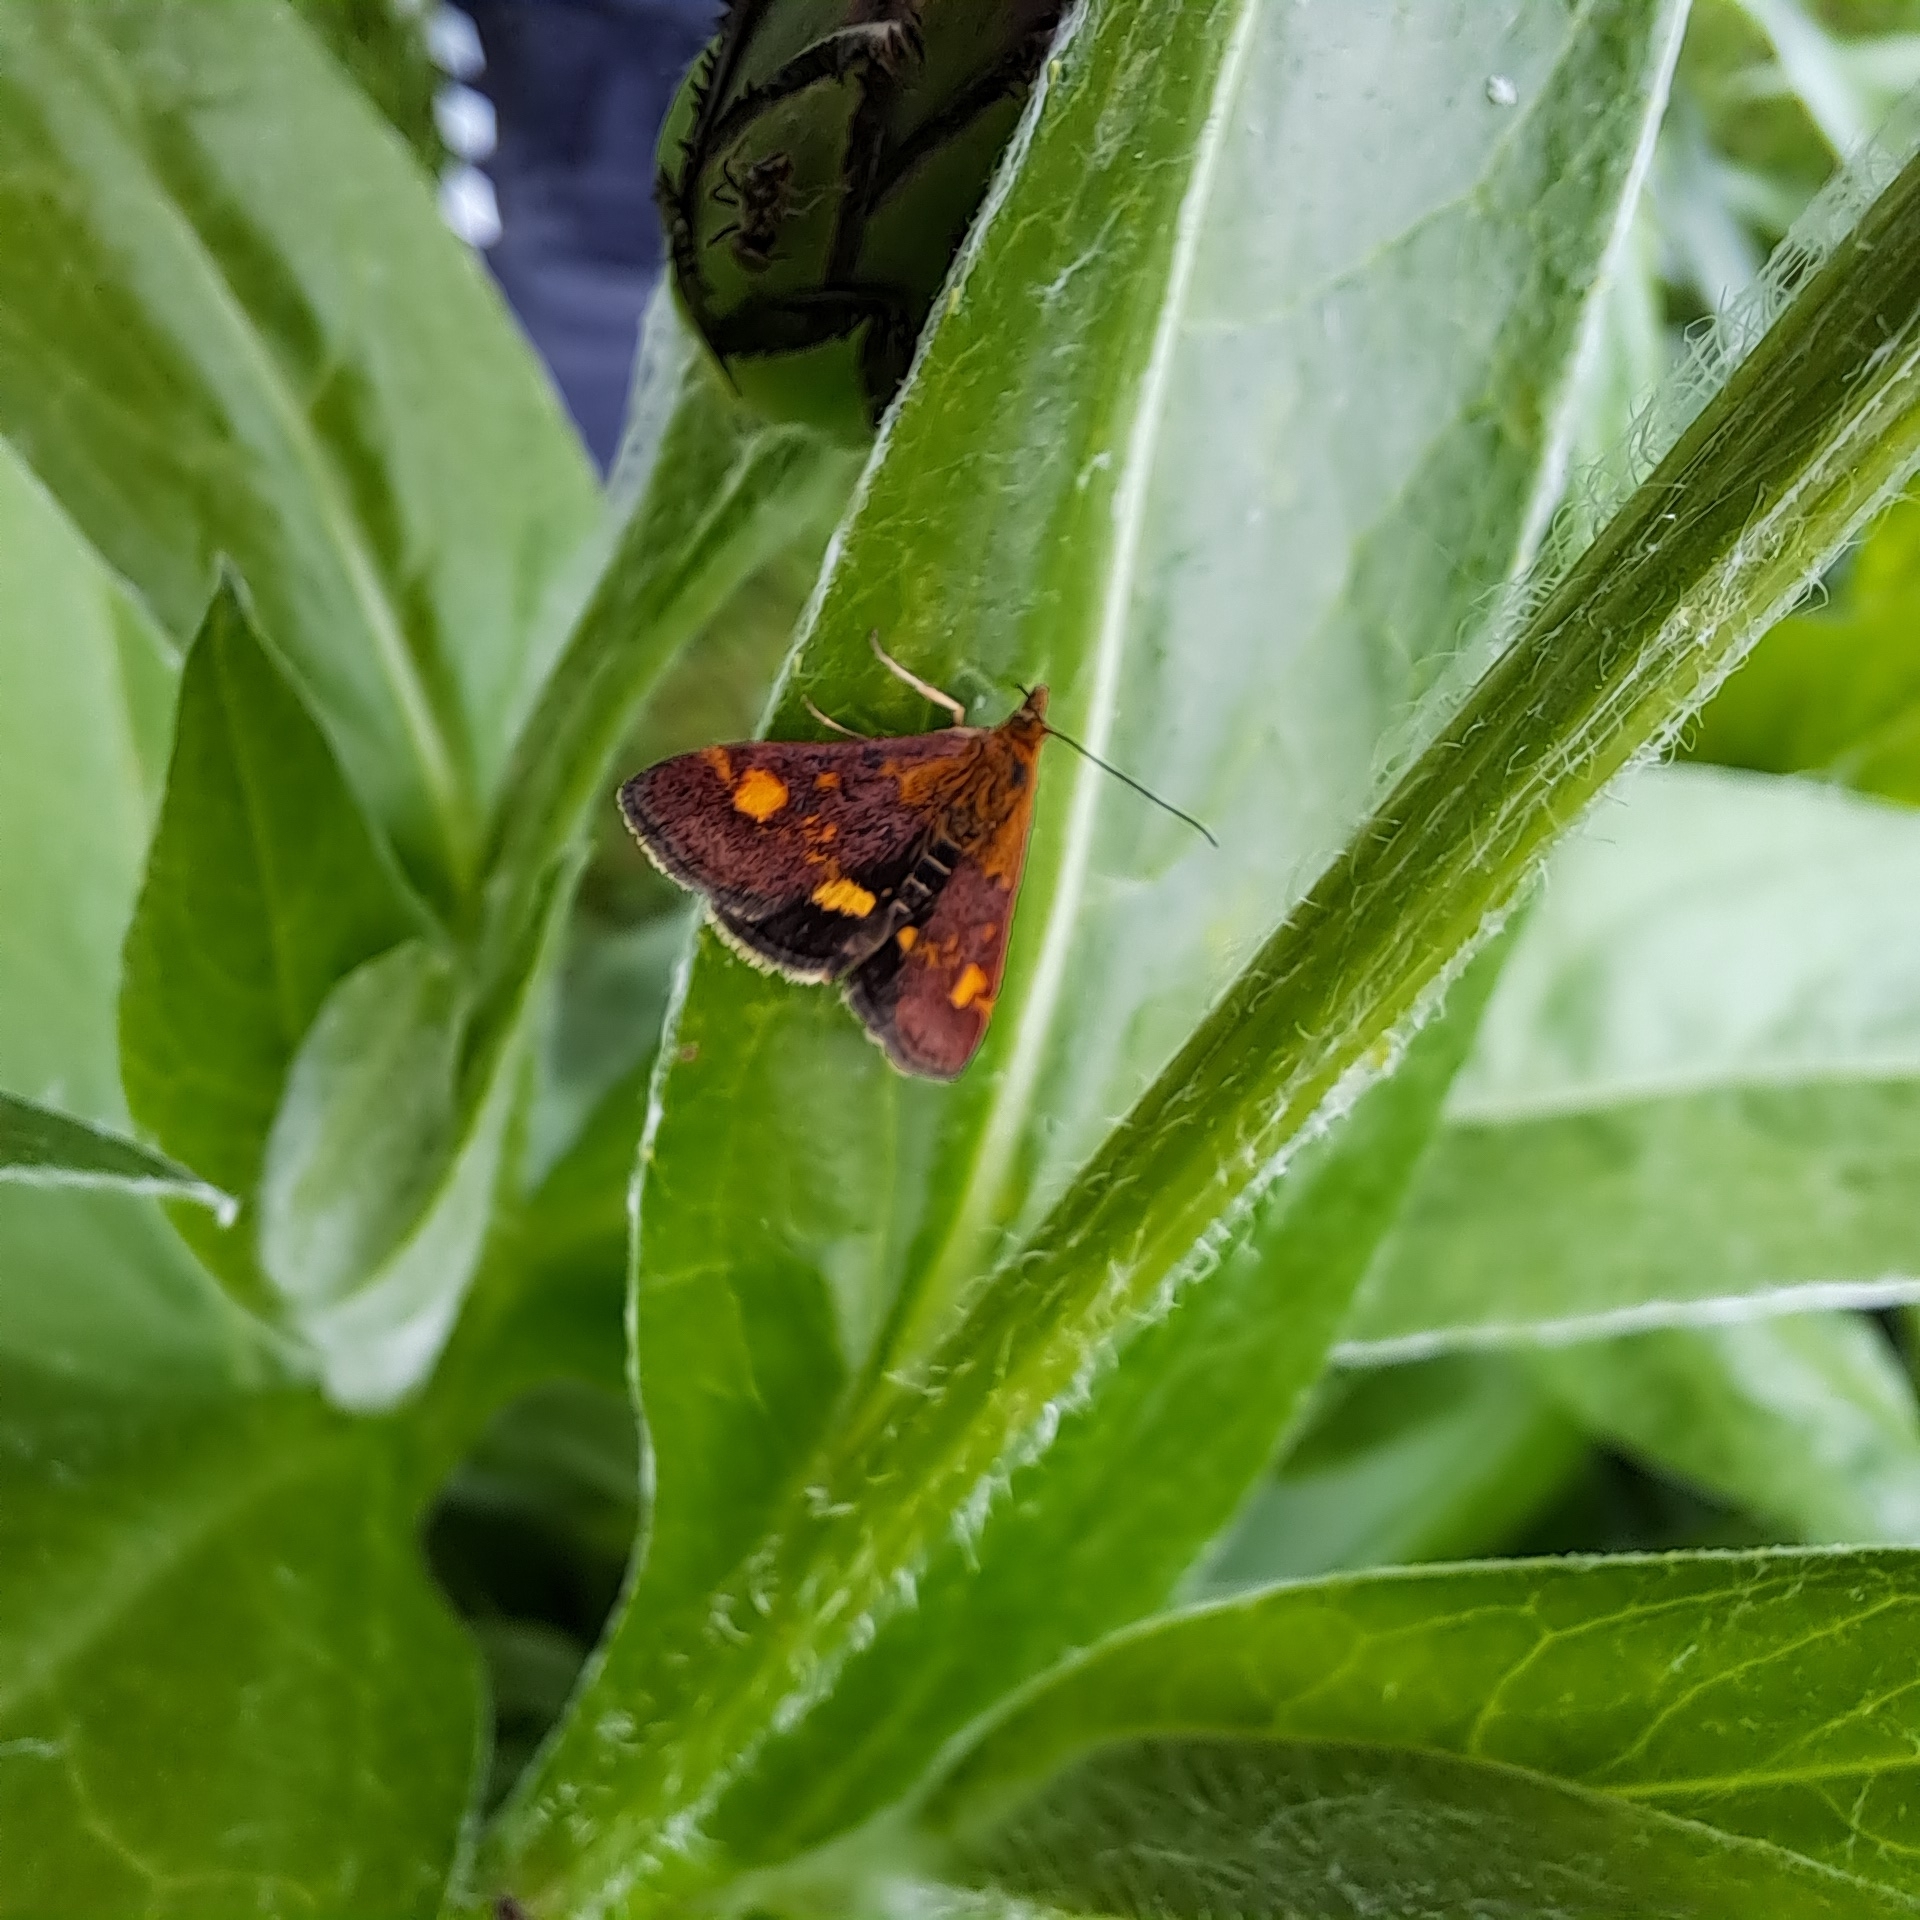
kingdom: Animalia
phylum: Arthropoda
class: Insecta
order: Lepidoptera
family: Crambidae
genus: Pyrausta
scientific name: Pyrausta aurata
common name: Small purple & gold
